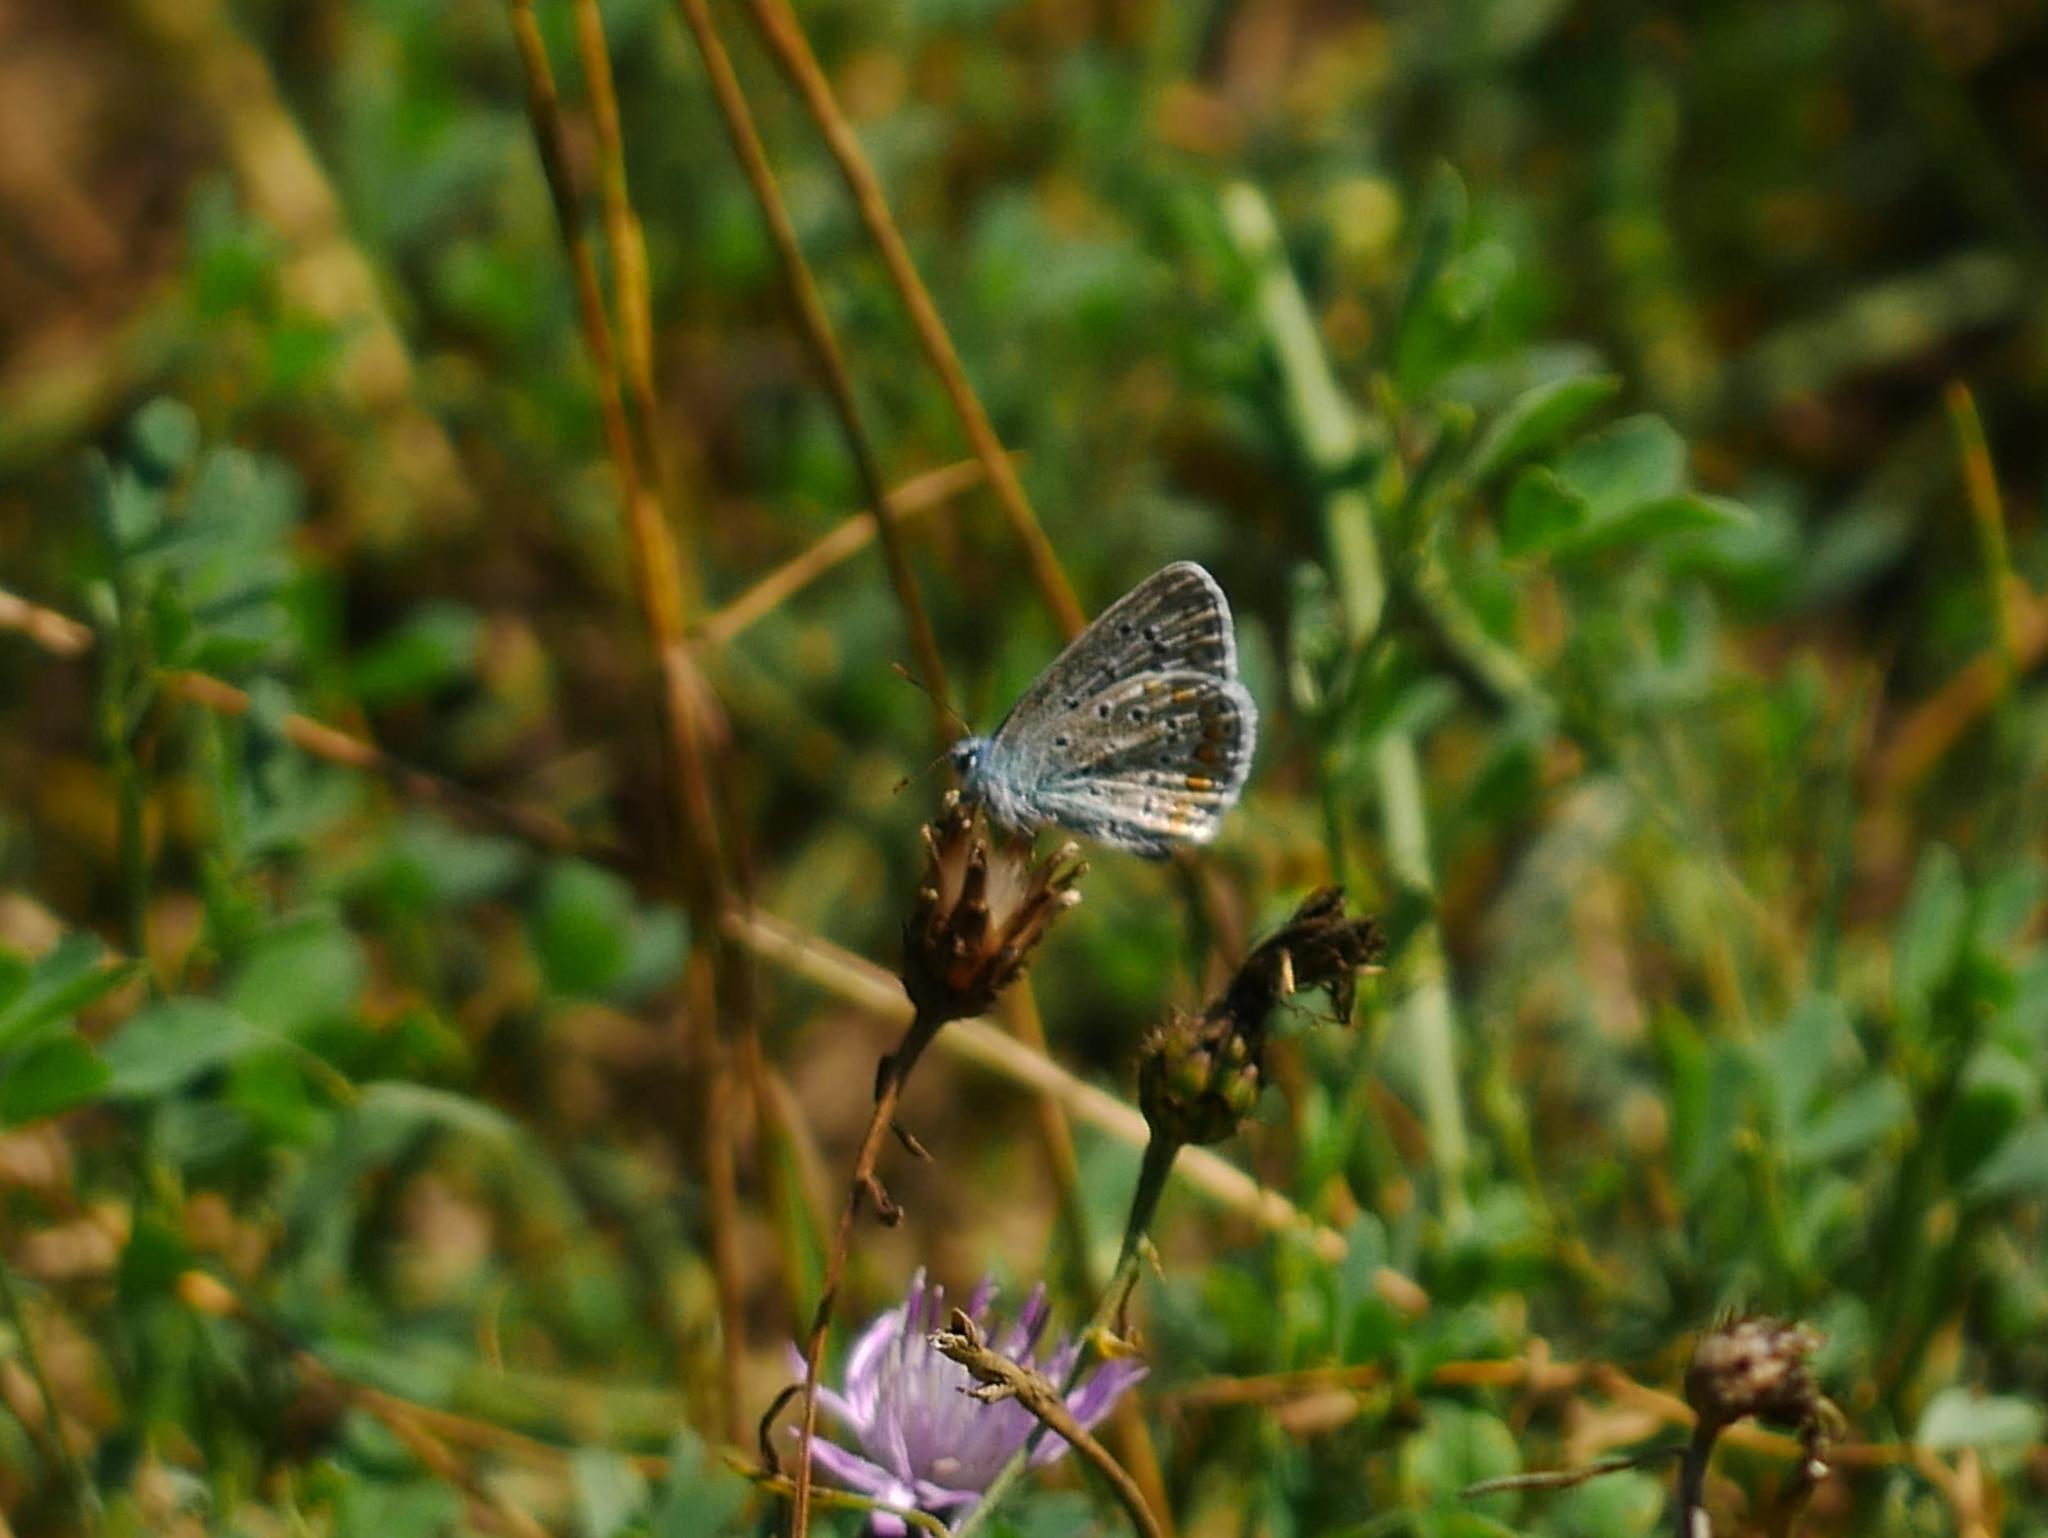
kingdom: Animalia
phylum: Arthropoda
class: Insecta
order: Lepidoptera
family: Lycaenidae
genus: Polyommatus
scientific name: Polyommatus icarus
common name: Common blue
